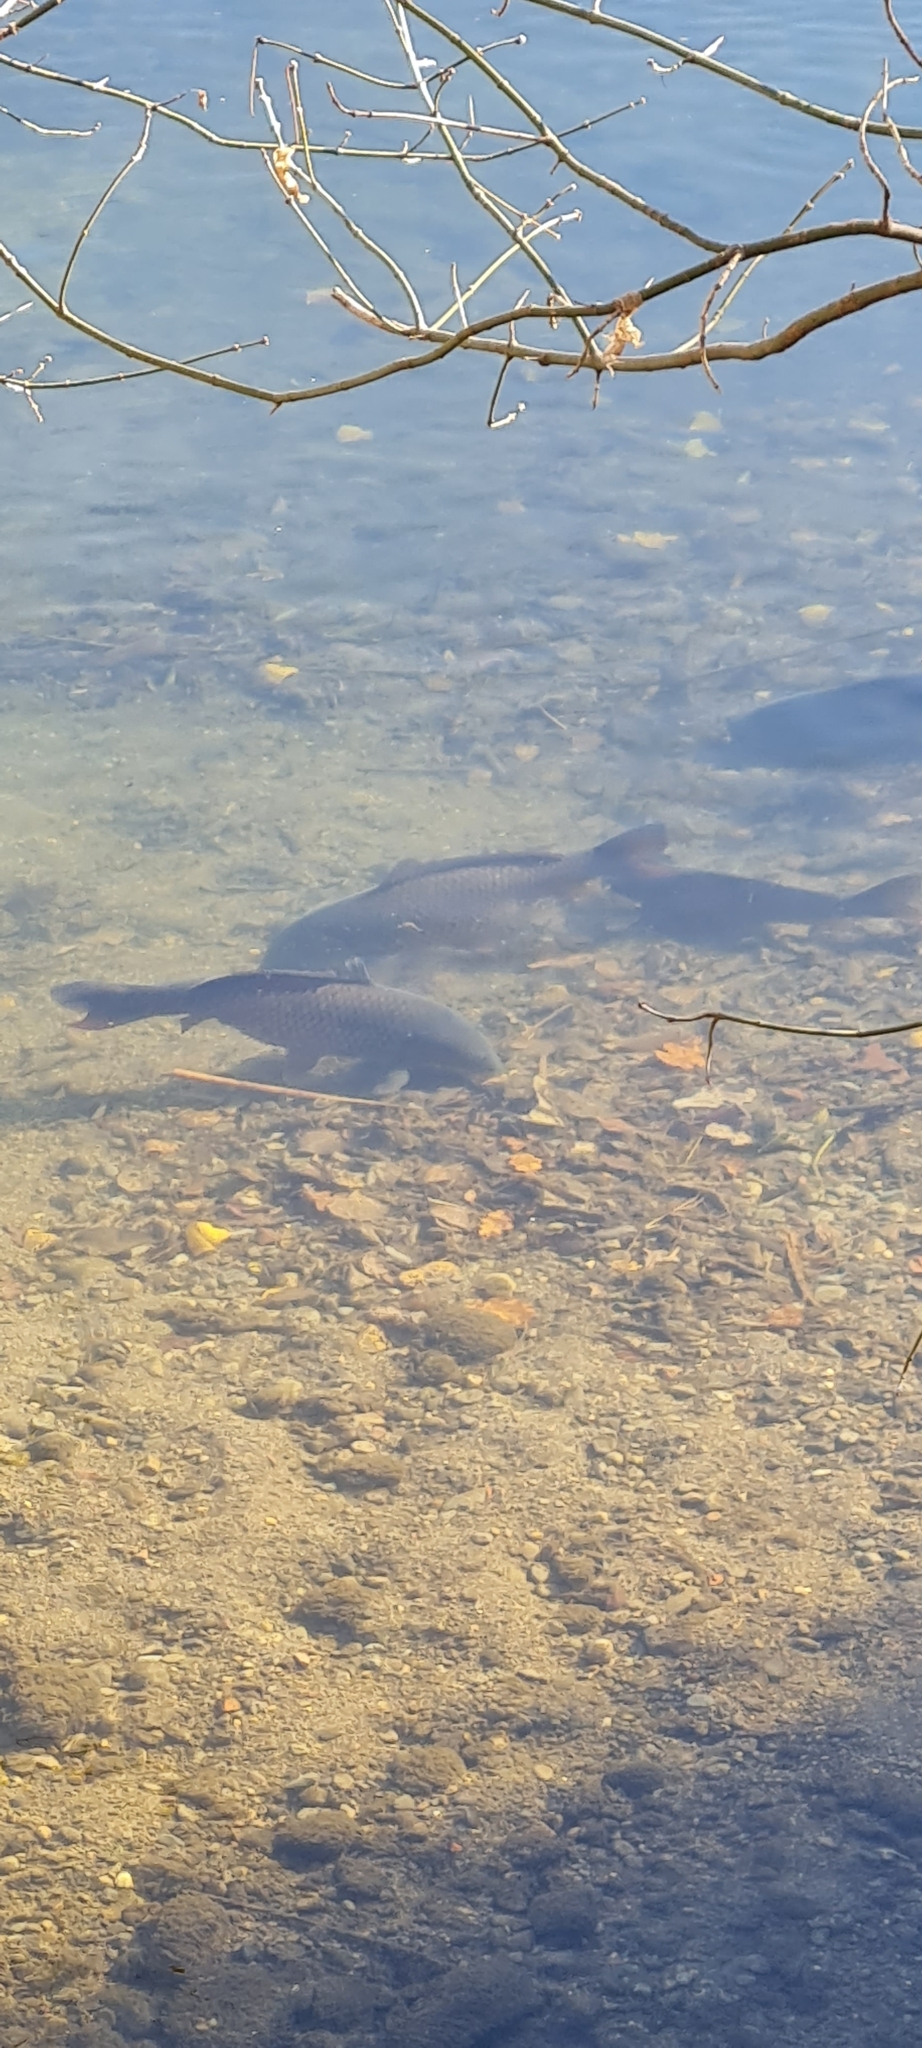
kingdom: Animalia
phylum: Chordata
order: Cypriniformes
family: Cyprinidae
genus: Cyprinus
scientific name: Cyprinus carpio
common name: Common carp
